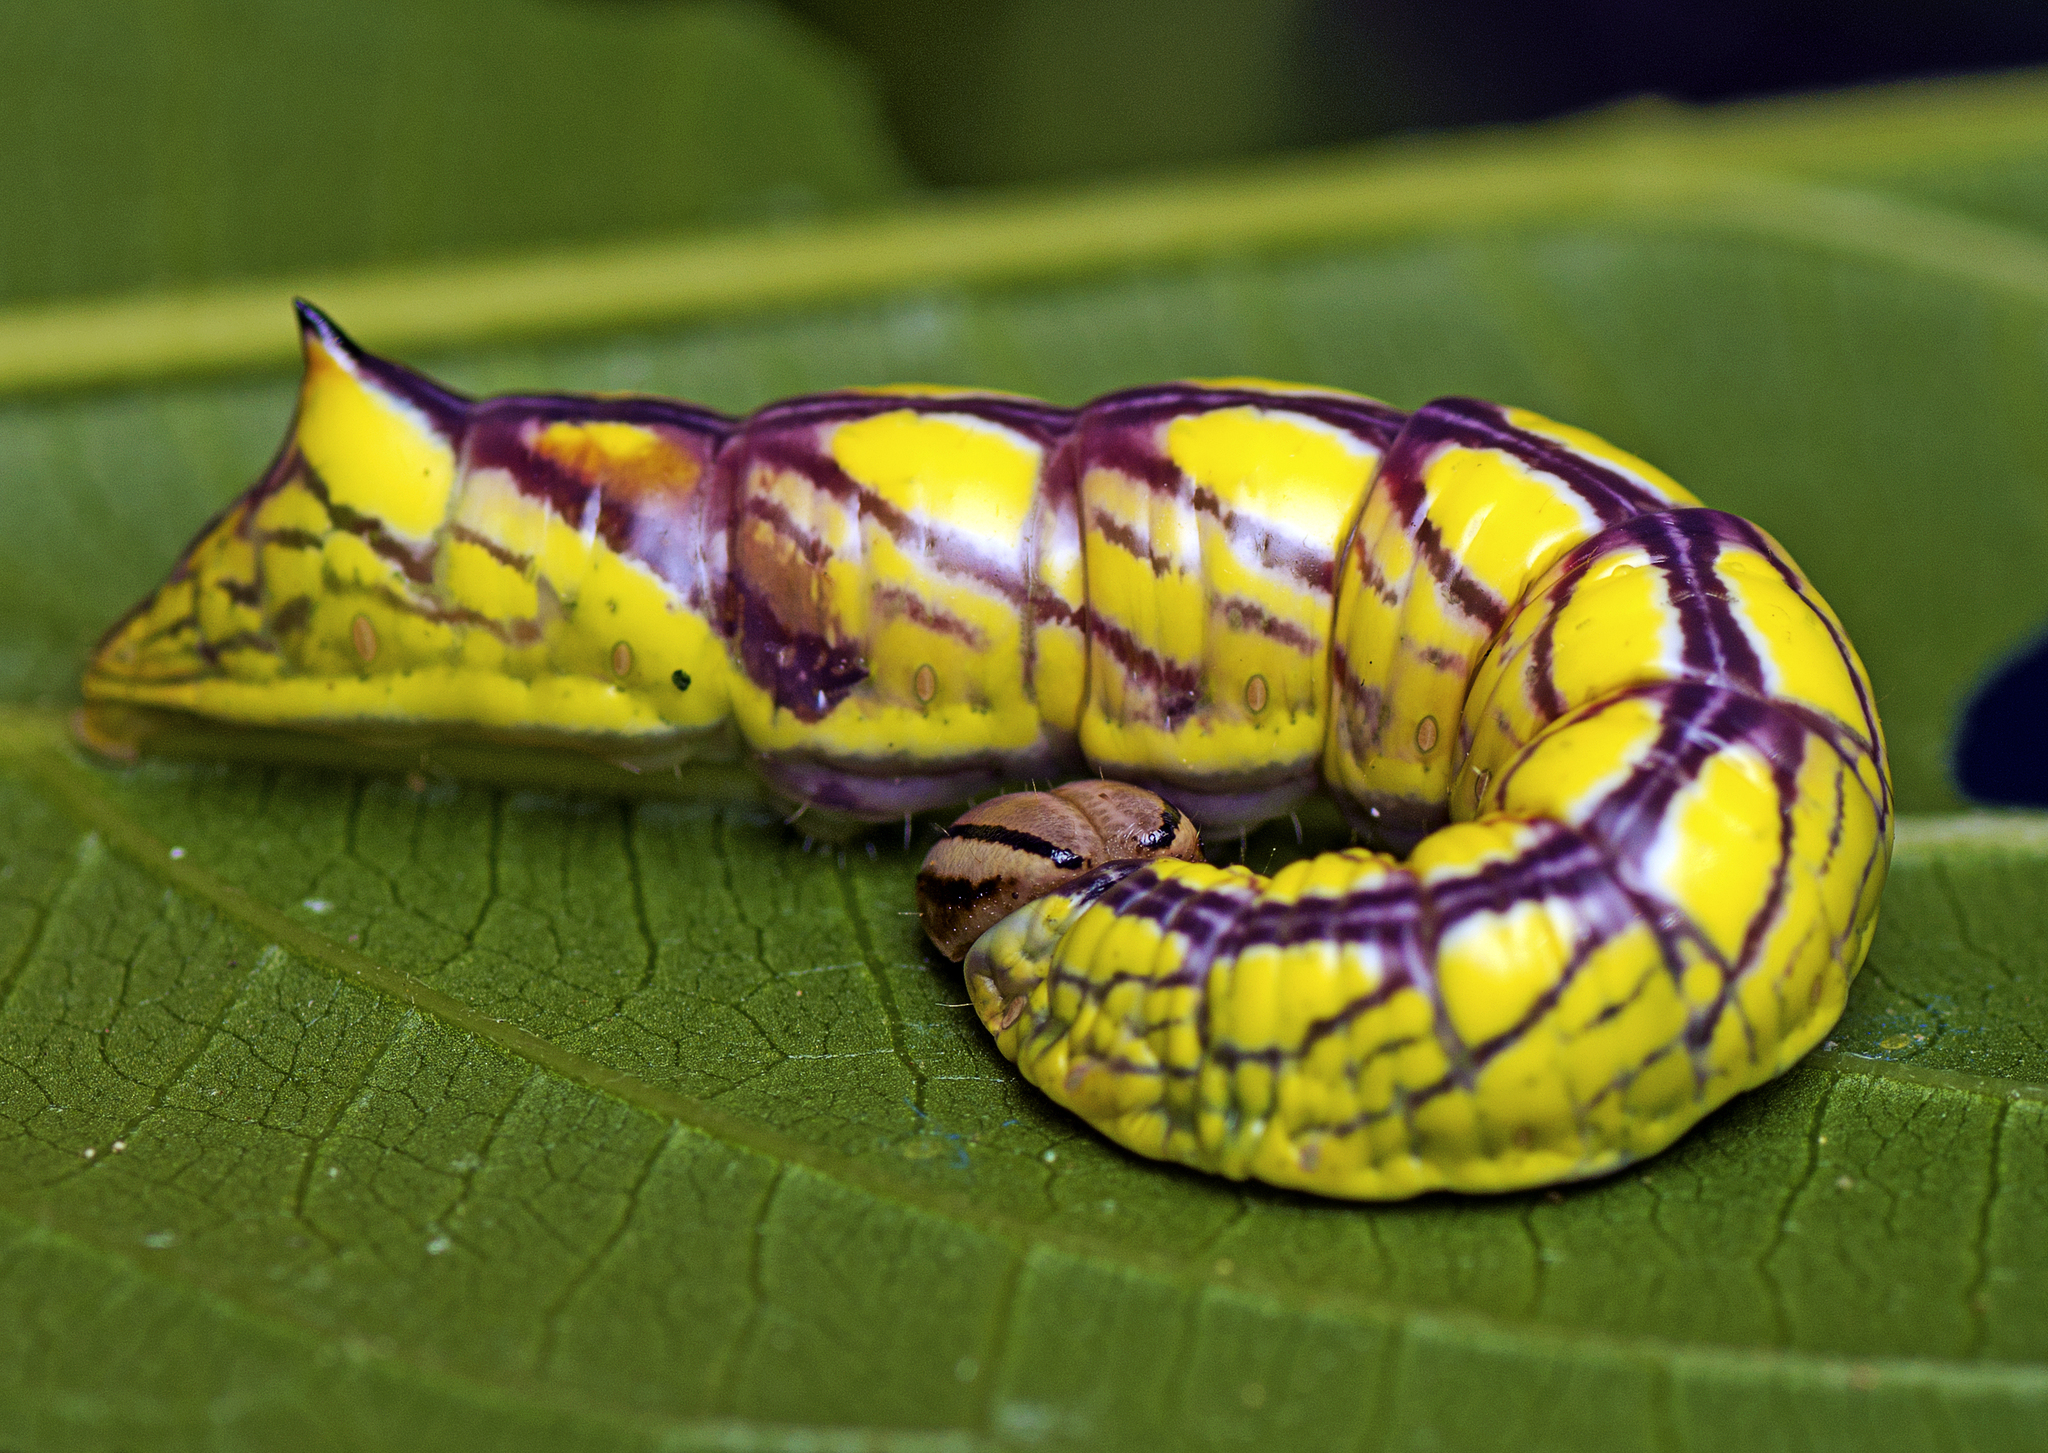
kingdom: Animalia
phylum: Arthropoda
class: Insecta
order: Lepidoptera
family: Notodontidae
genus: Chadisra
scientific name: Chadisra Antithemerastis acrobela
